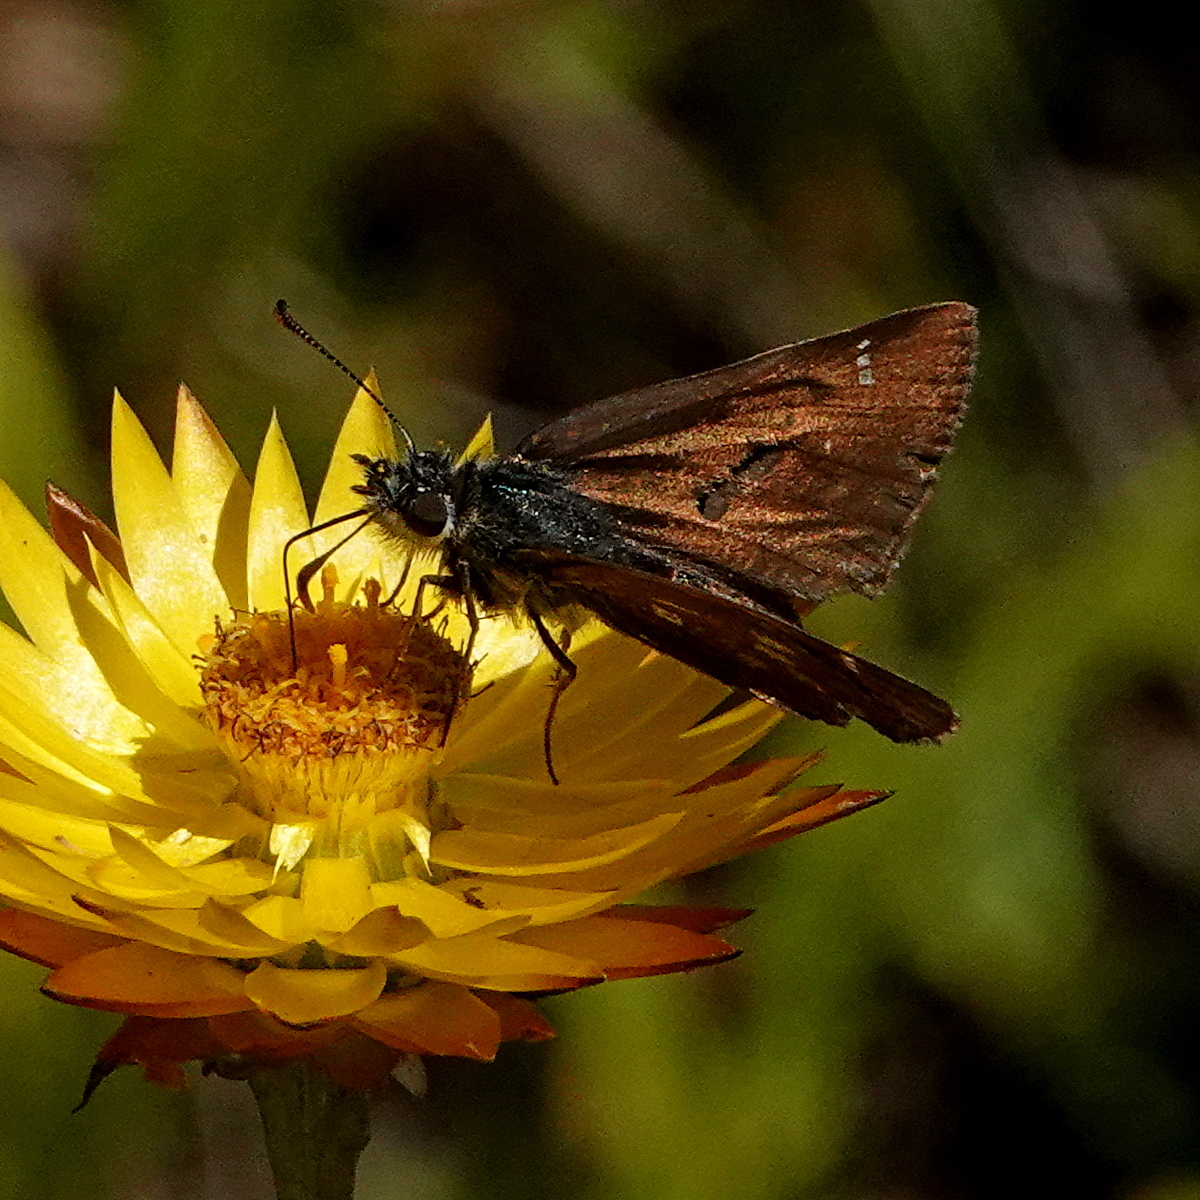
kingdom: Animalia
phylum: Arthropoda
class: Insecta
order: Lepidoptera
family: Hesperiidae
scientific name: Hesperiidae
